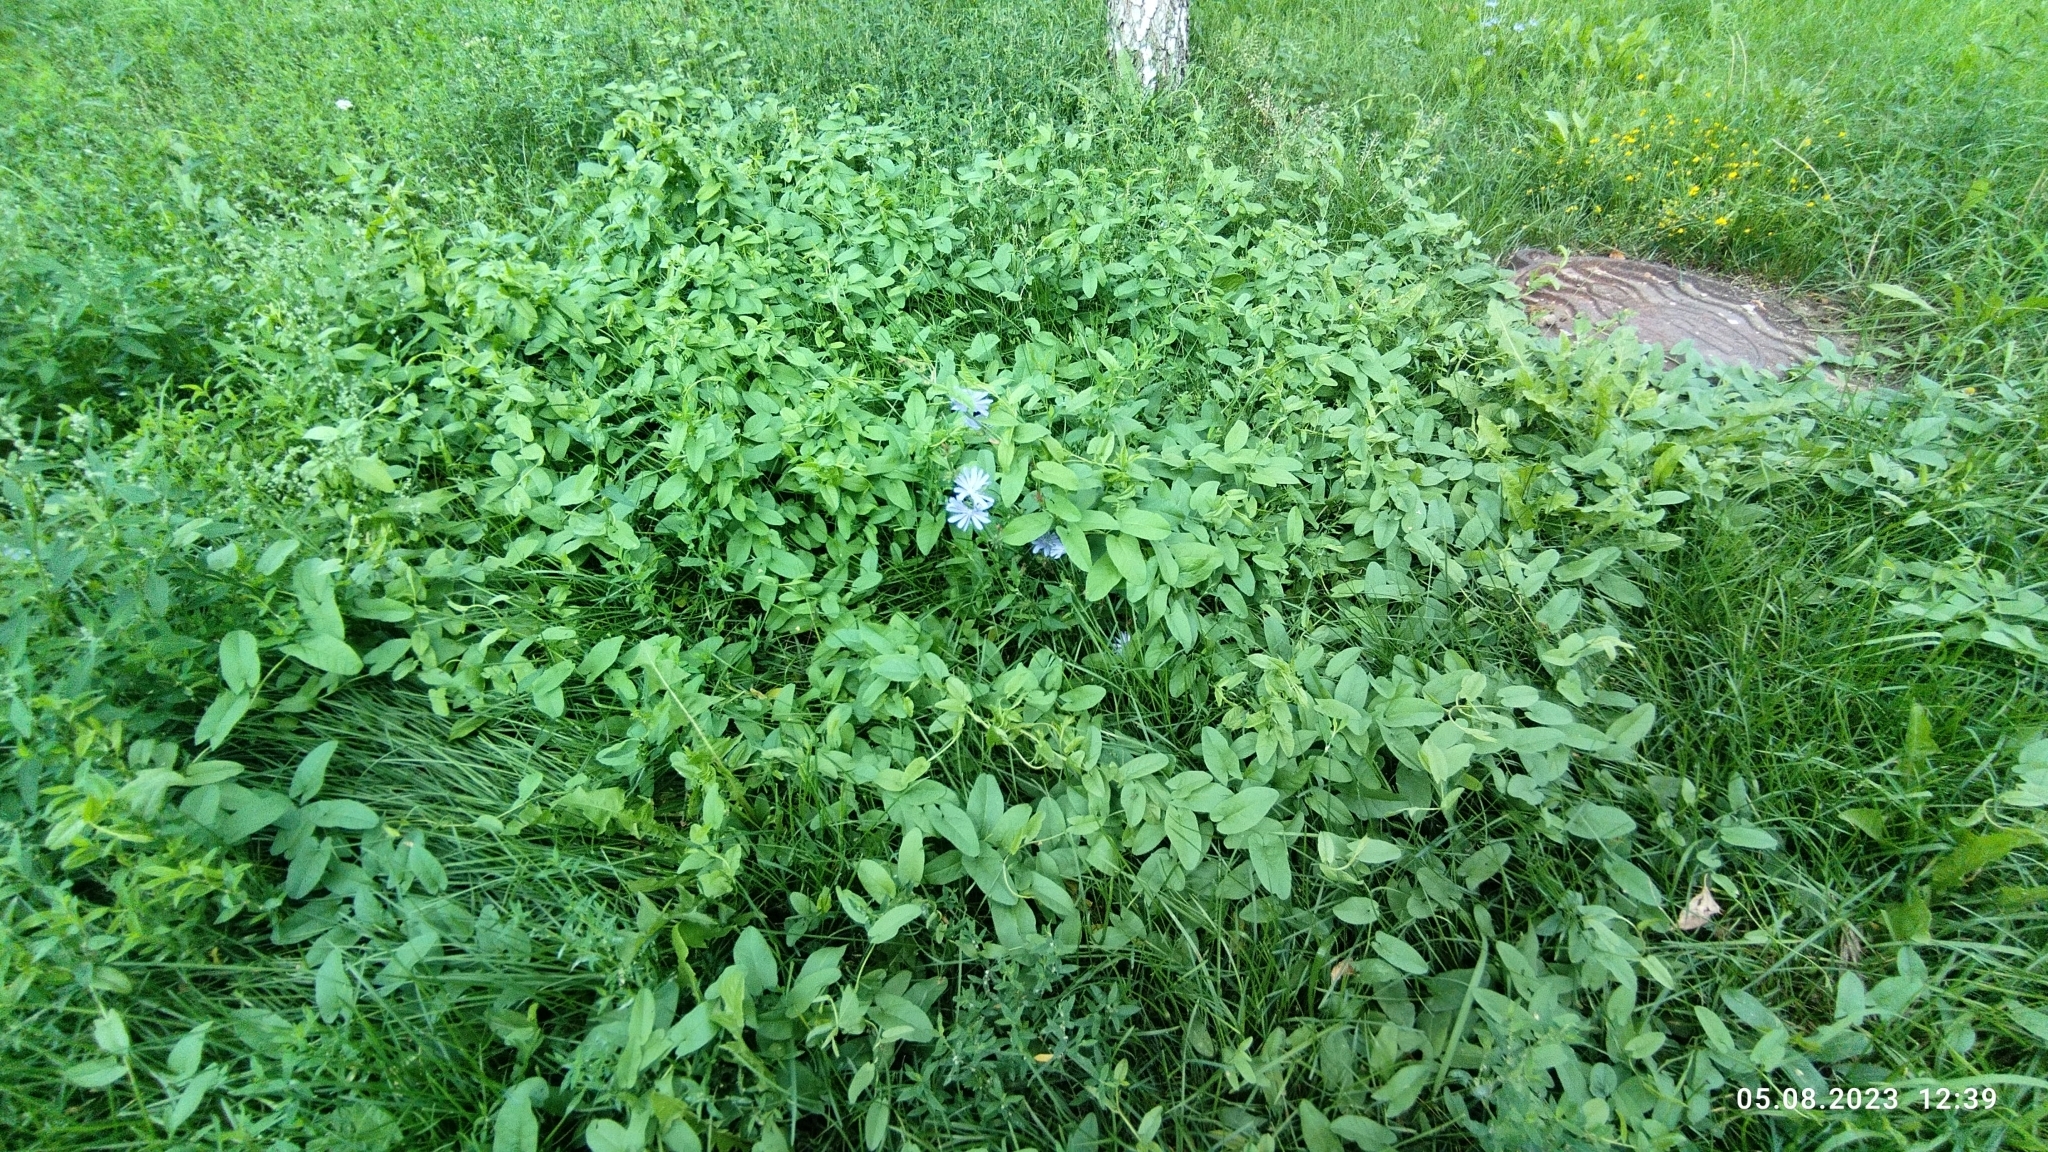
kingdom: Plantae
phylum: Tracheophyta
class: Magnoliopsida
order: Solanales
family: Convolvulaceae
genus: Convolvulus
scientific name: Convolvulus arvensis
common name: Field bindweed
